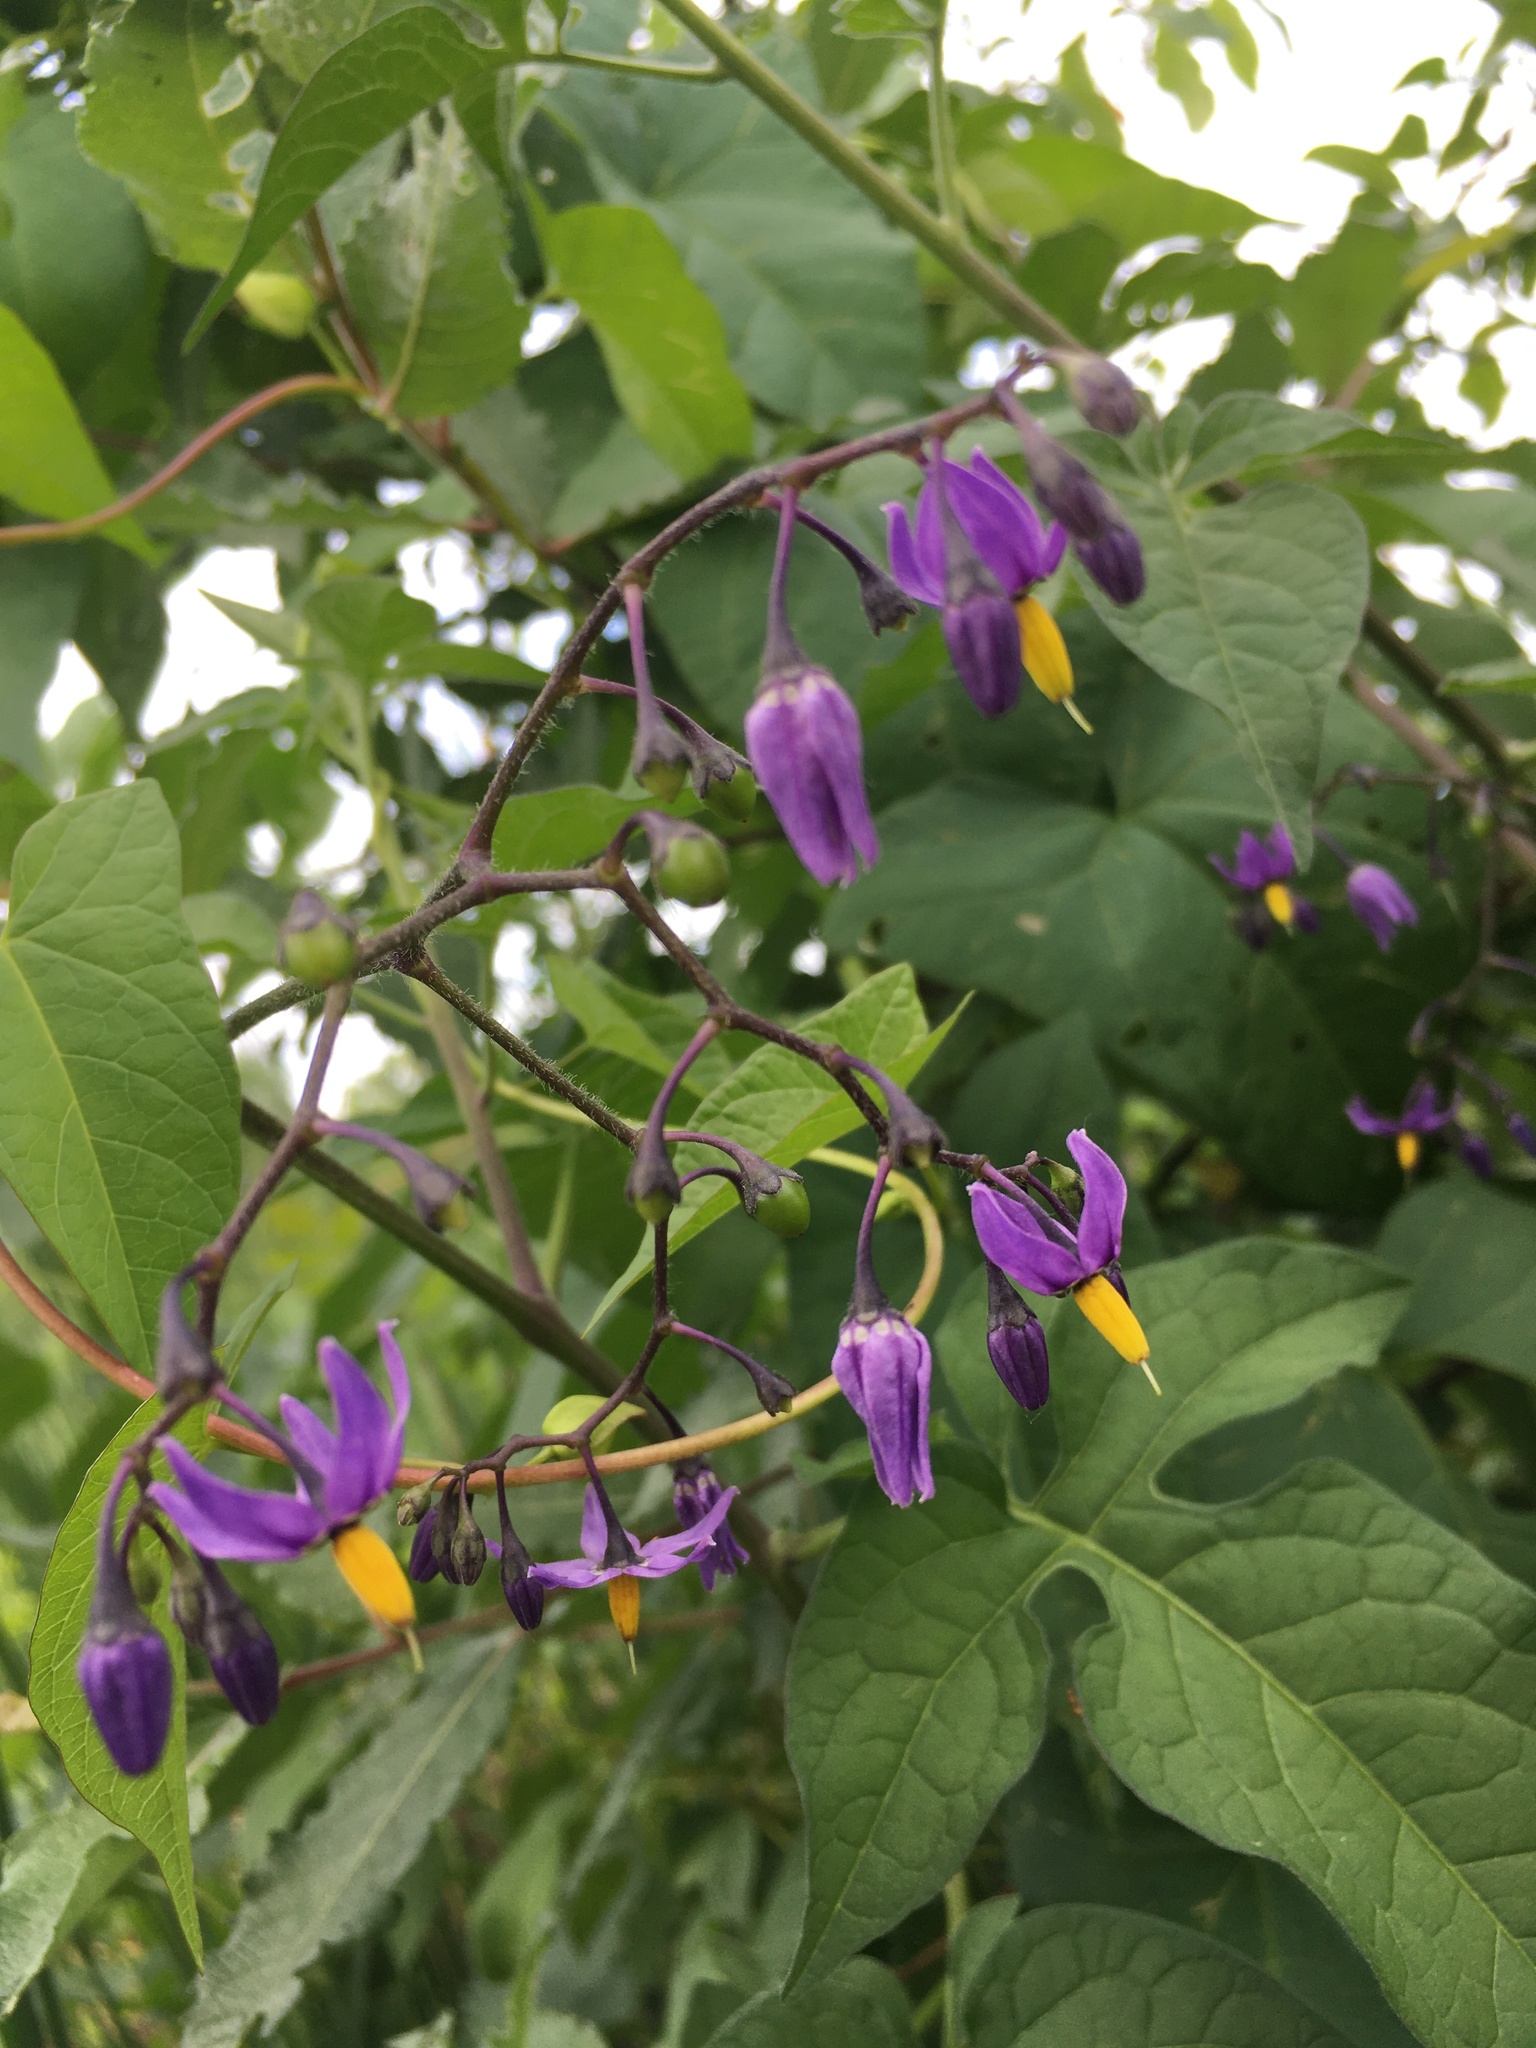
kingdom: Plantae
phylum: Tracheophyta
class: Magnoliopsida
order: Solanales
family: Solanaceae
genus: Solanum
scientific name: Solanum dulcamara
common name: Climbing nightshade
